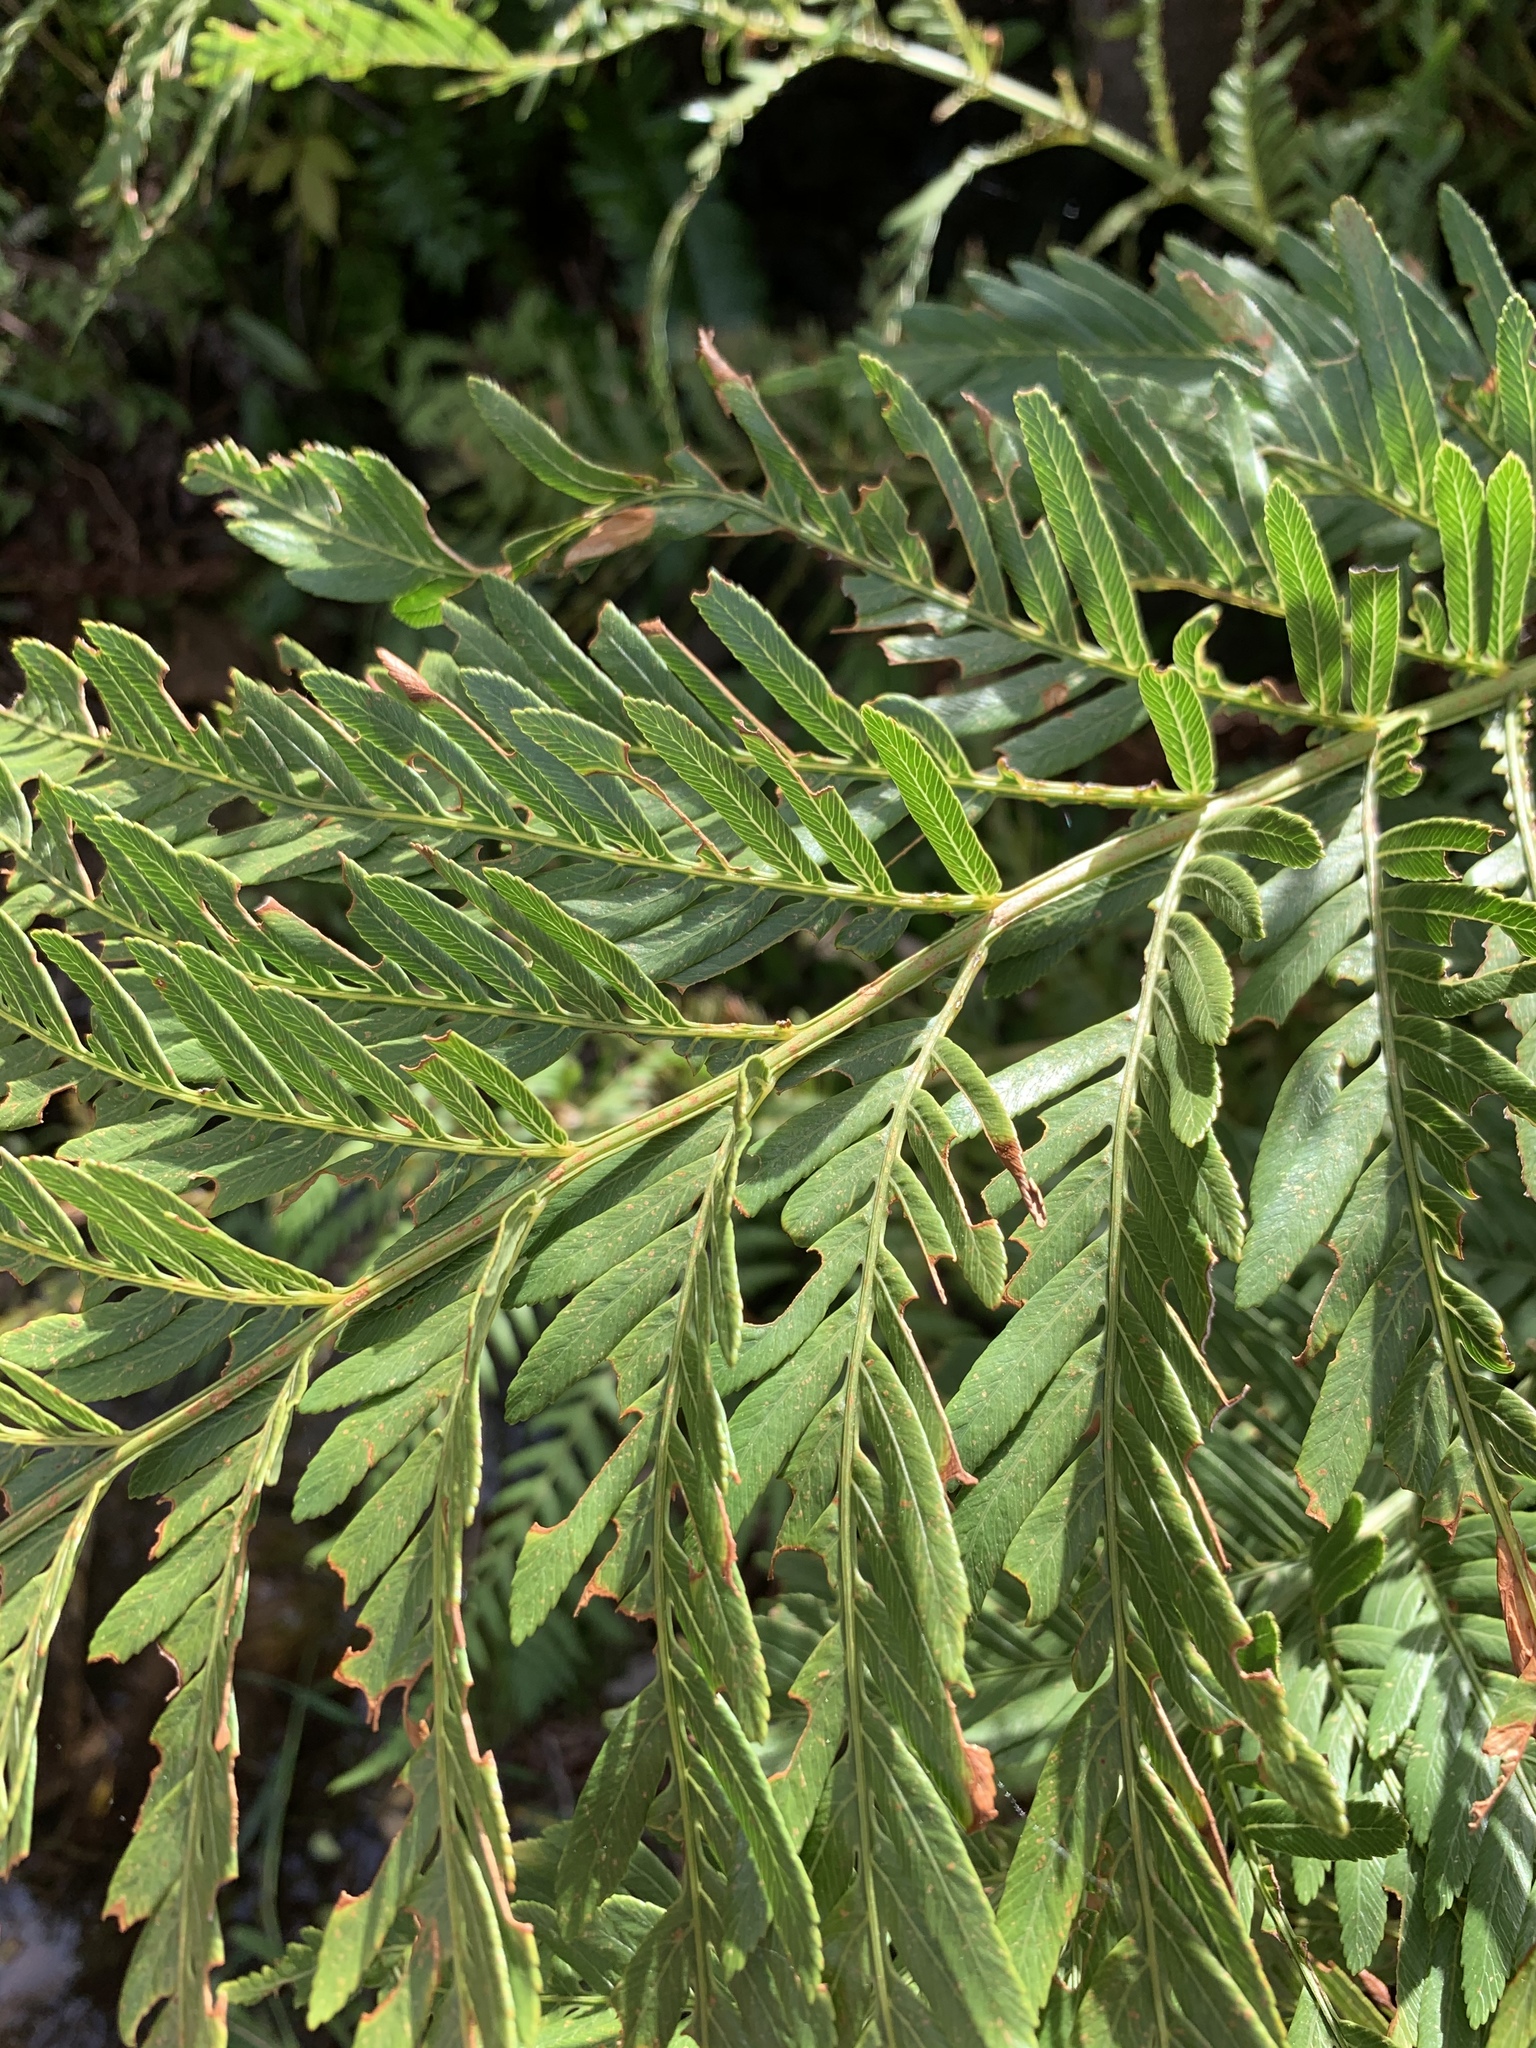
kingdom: Plantae
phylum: Tracheophyta
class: Polypodiopsida
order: Osmundales
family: Osmundaceae
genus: Todea
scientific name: Todea barbara
